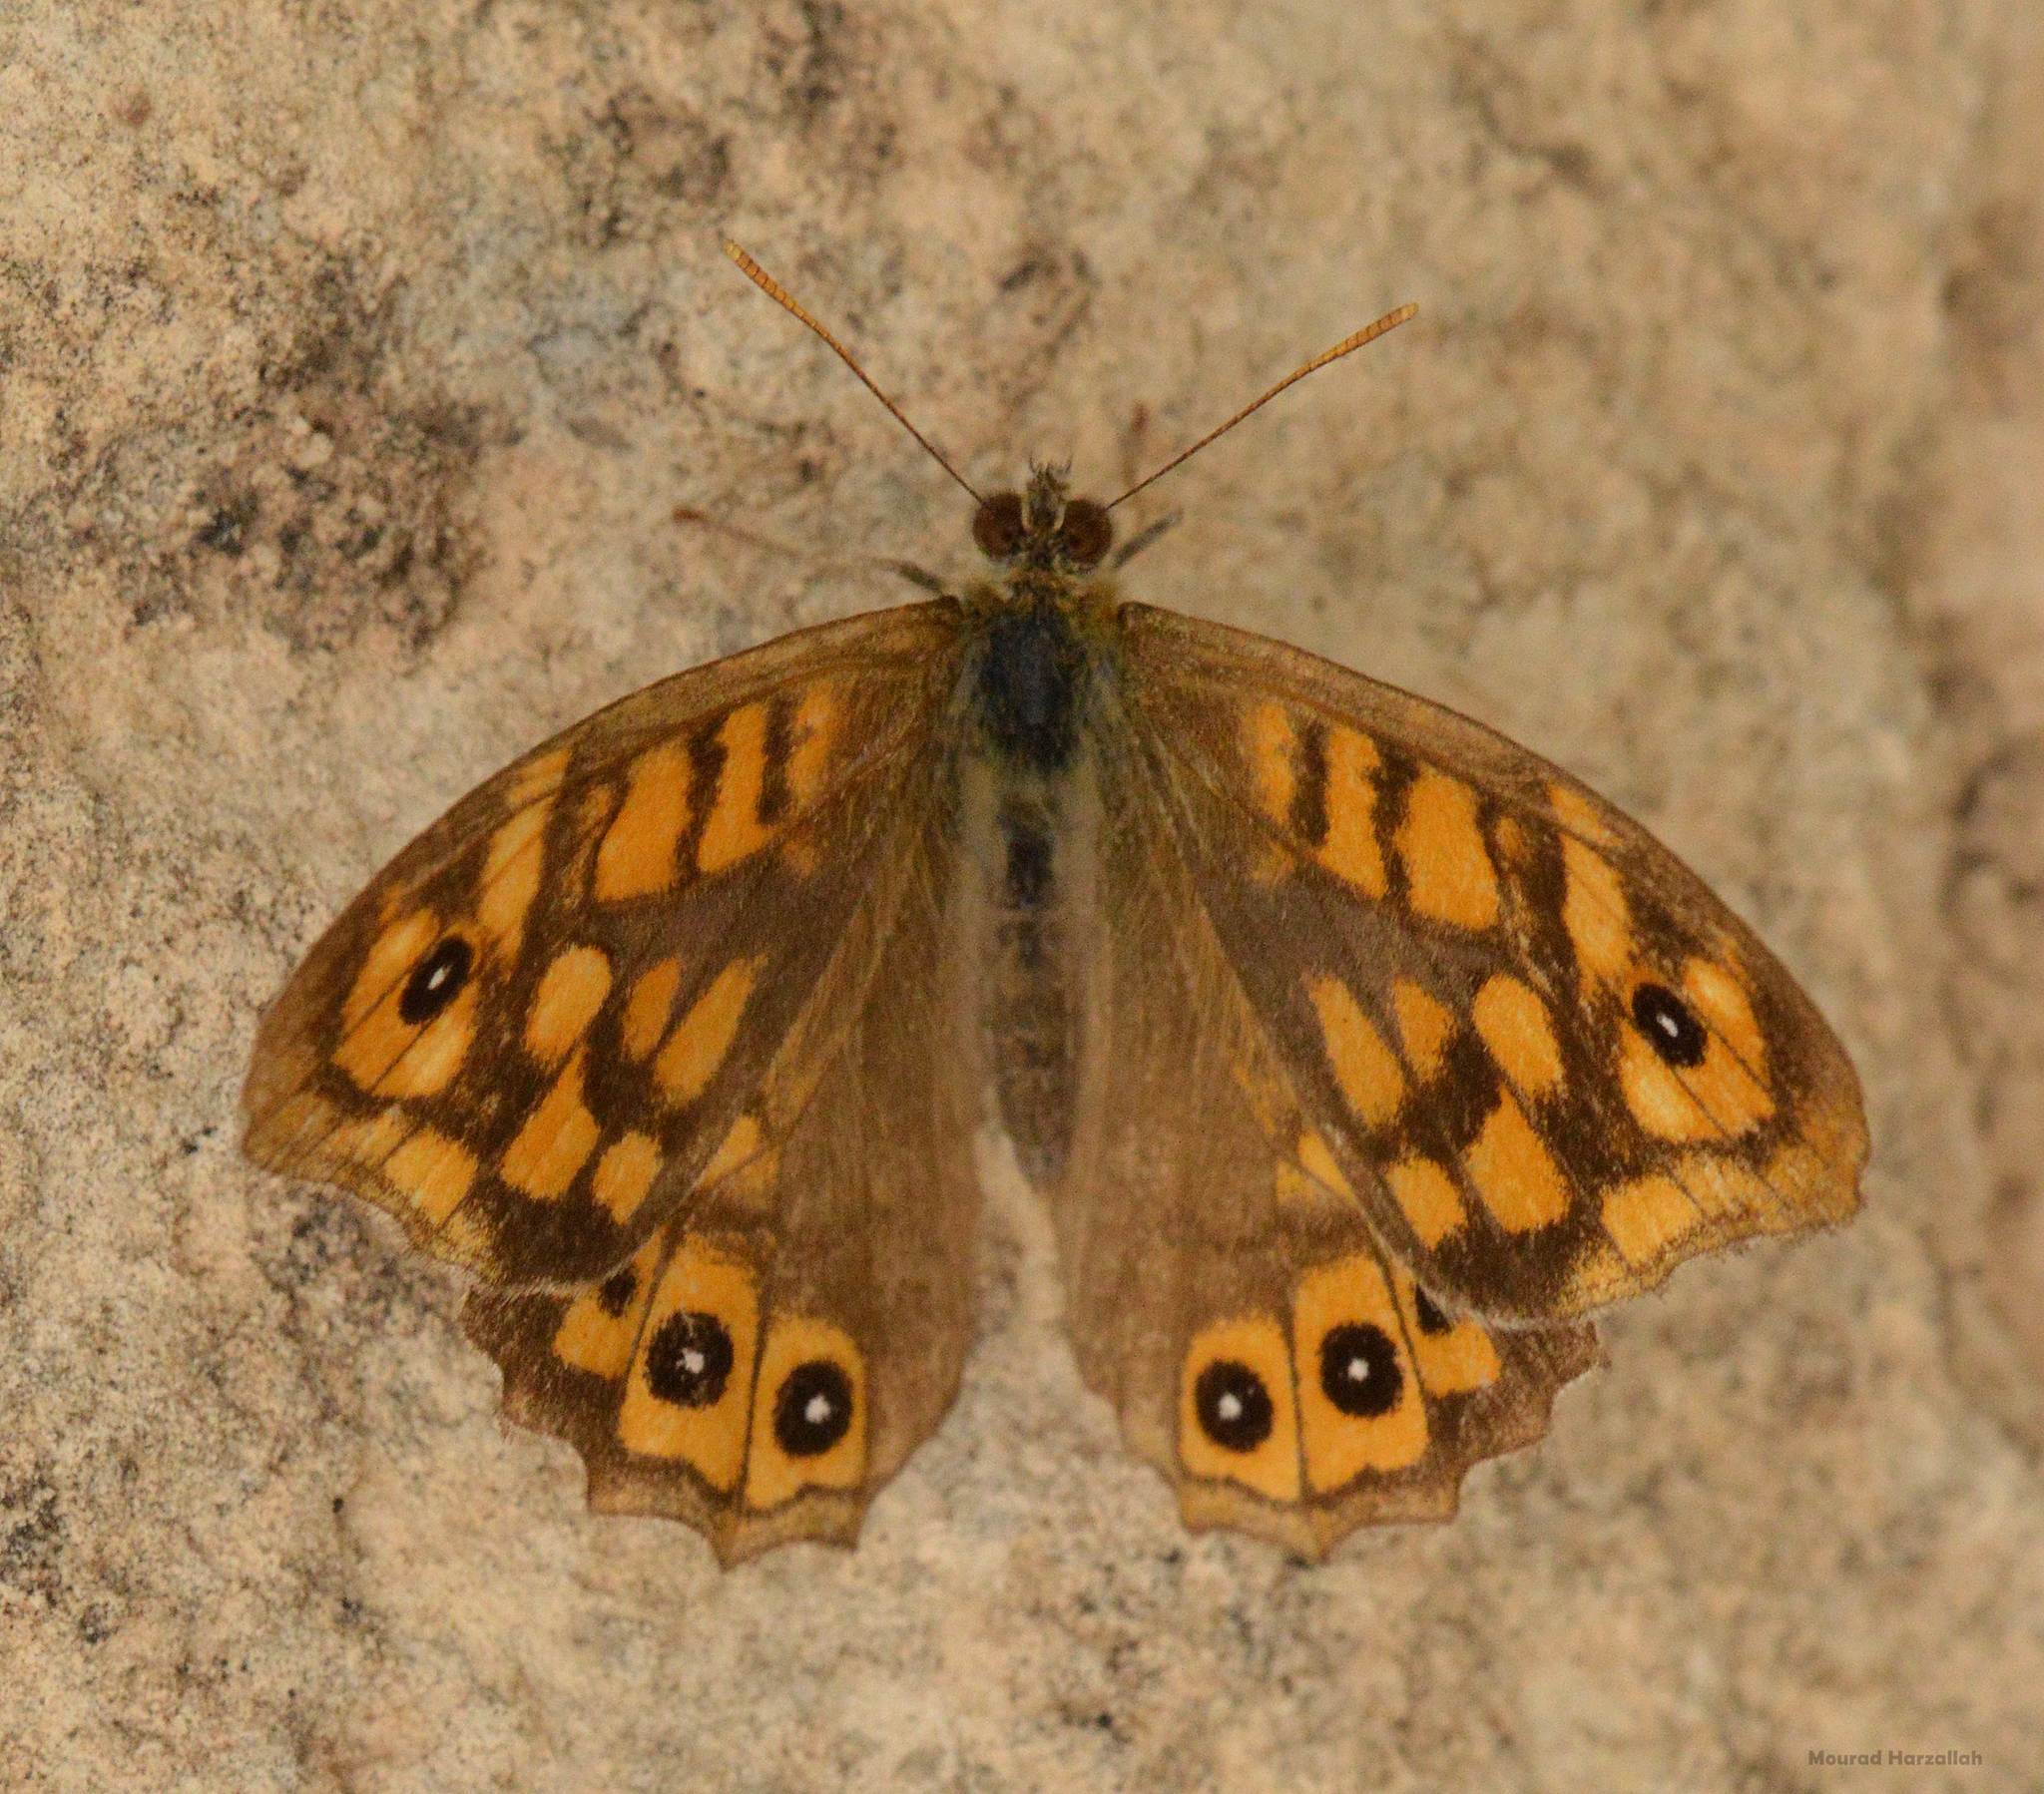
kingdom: Animalia
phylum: Arthropoda
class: Insecta
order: Lepidoptera
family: Nymphalidae
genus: Pararge
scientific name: Pararge aegeria
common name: Speckled wood
